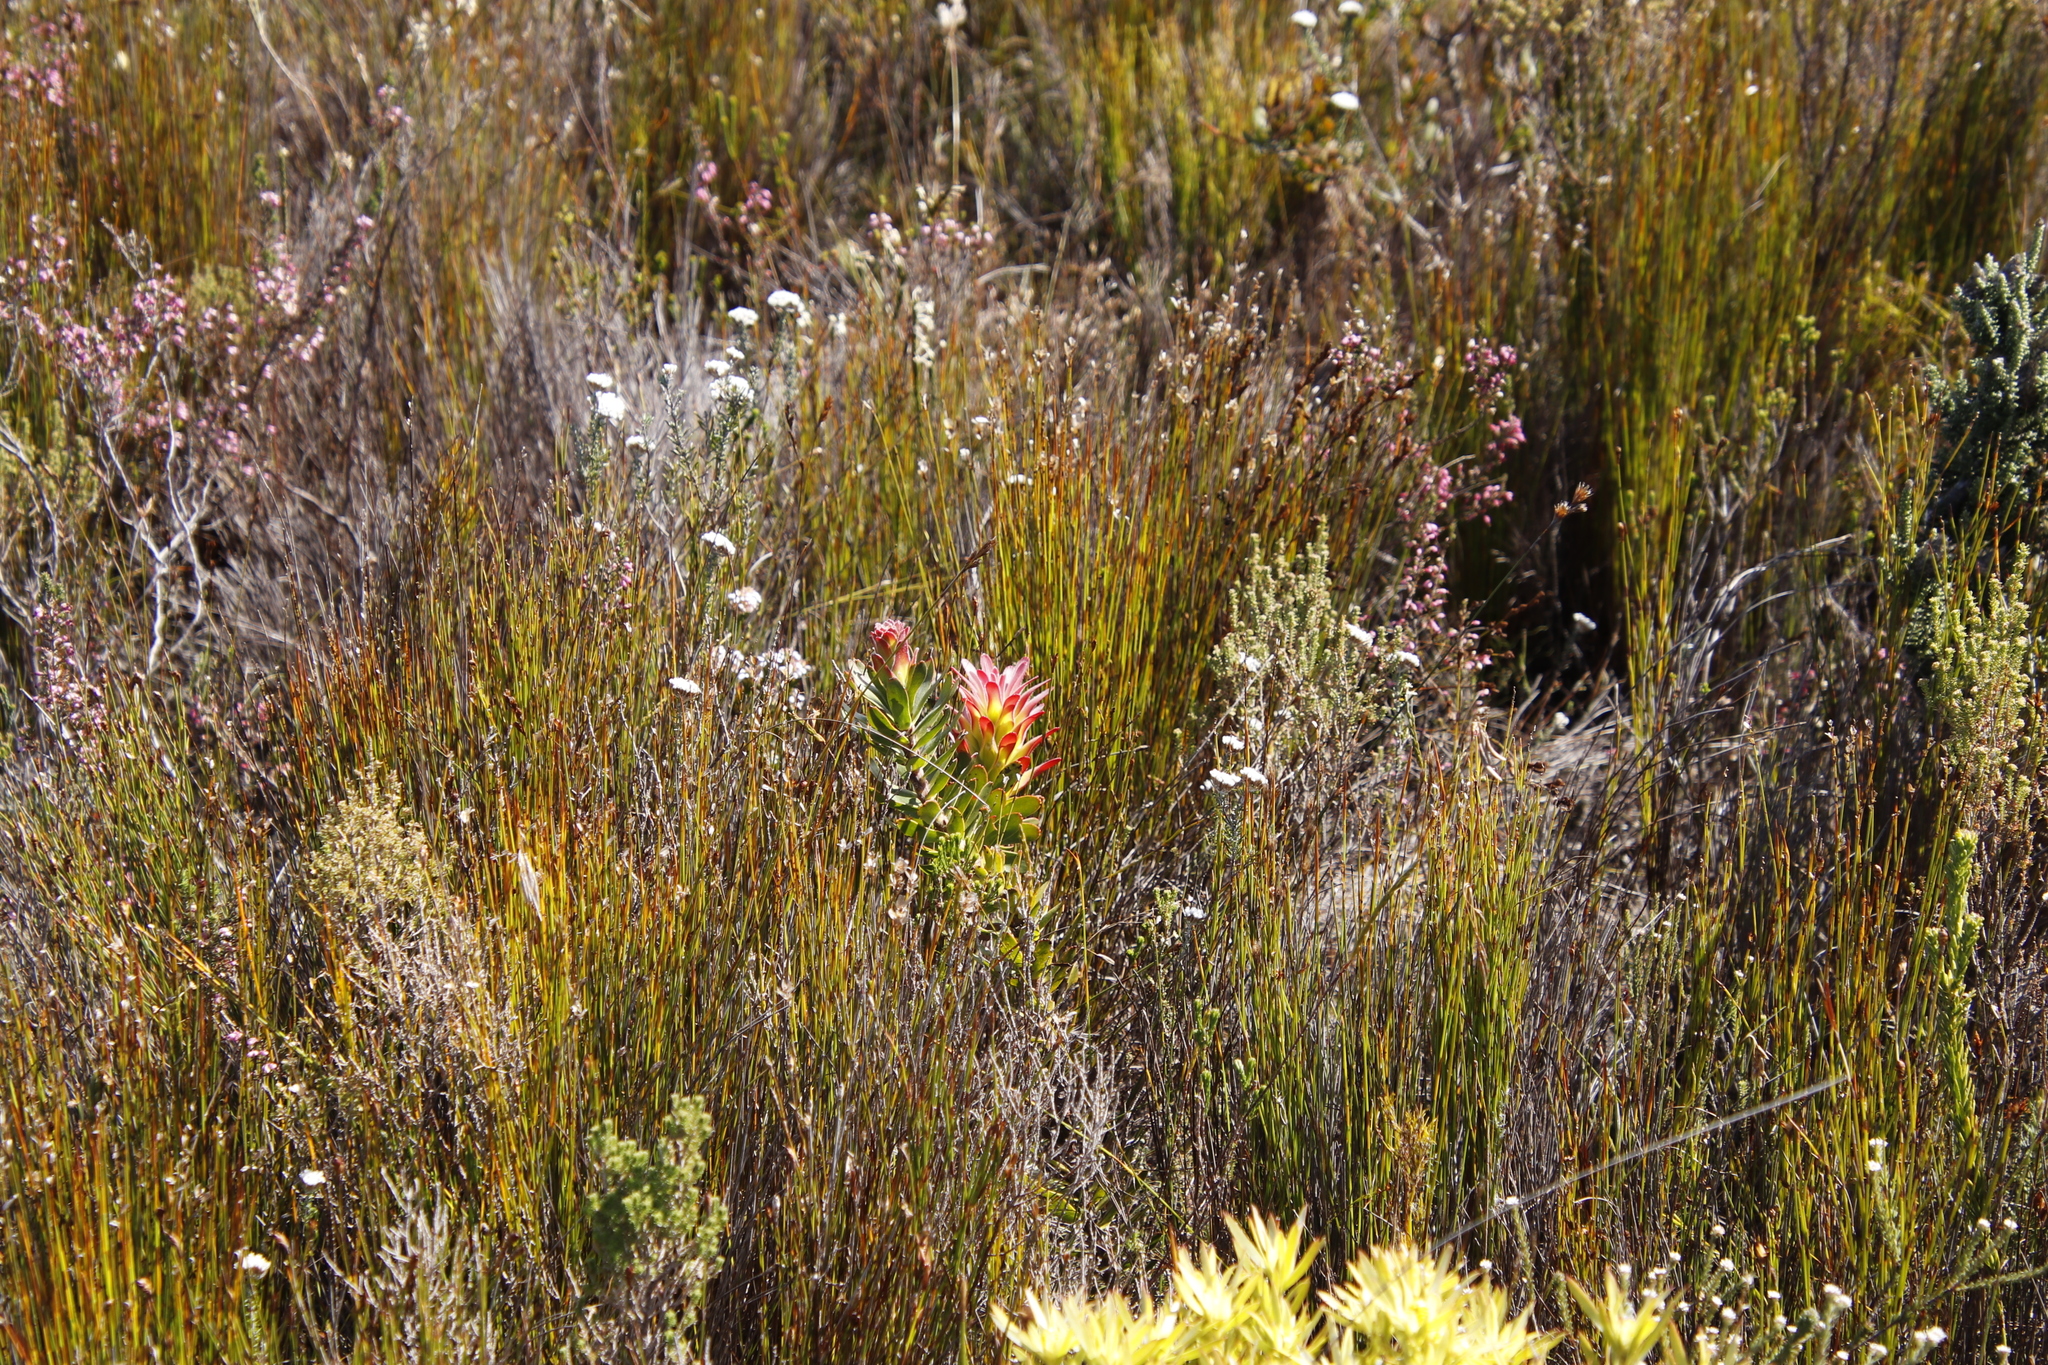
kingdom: Plantae
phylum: Tracheophyta
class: Magnoliopsida
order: Proteales
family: Proteaceae
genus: Mimetes
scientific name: Mimetes cucullatus
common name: Common pagoda
